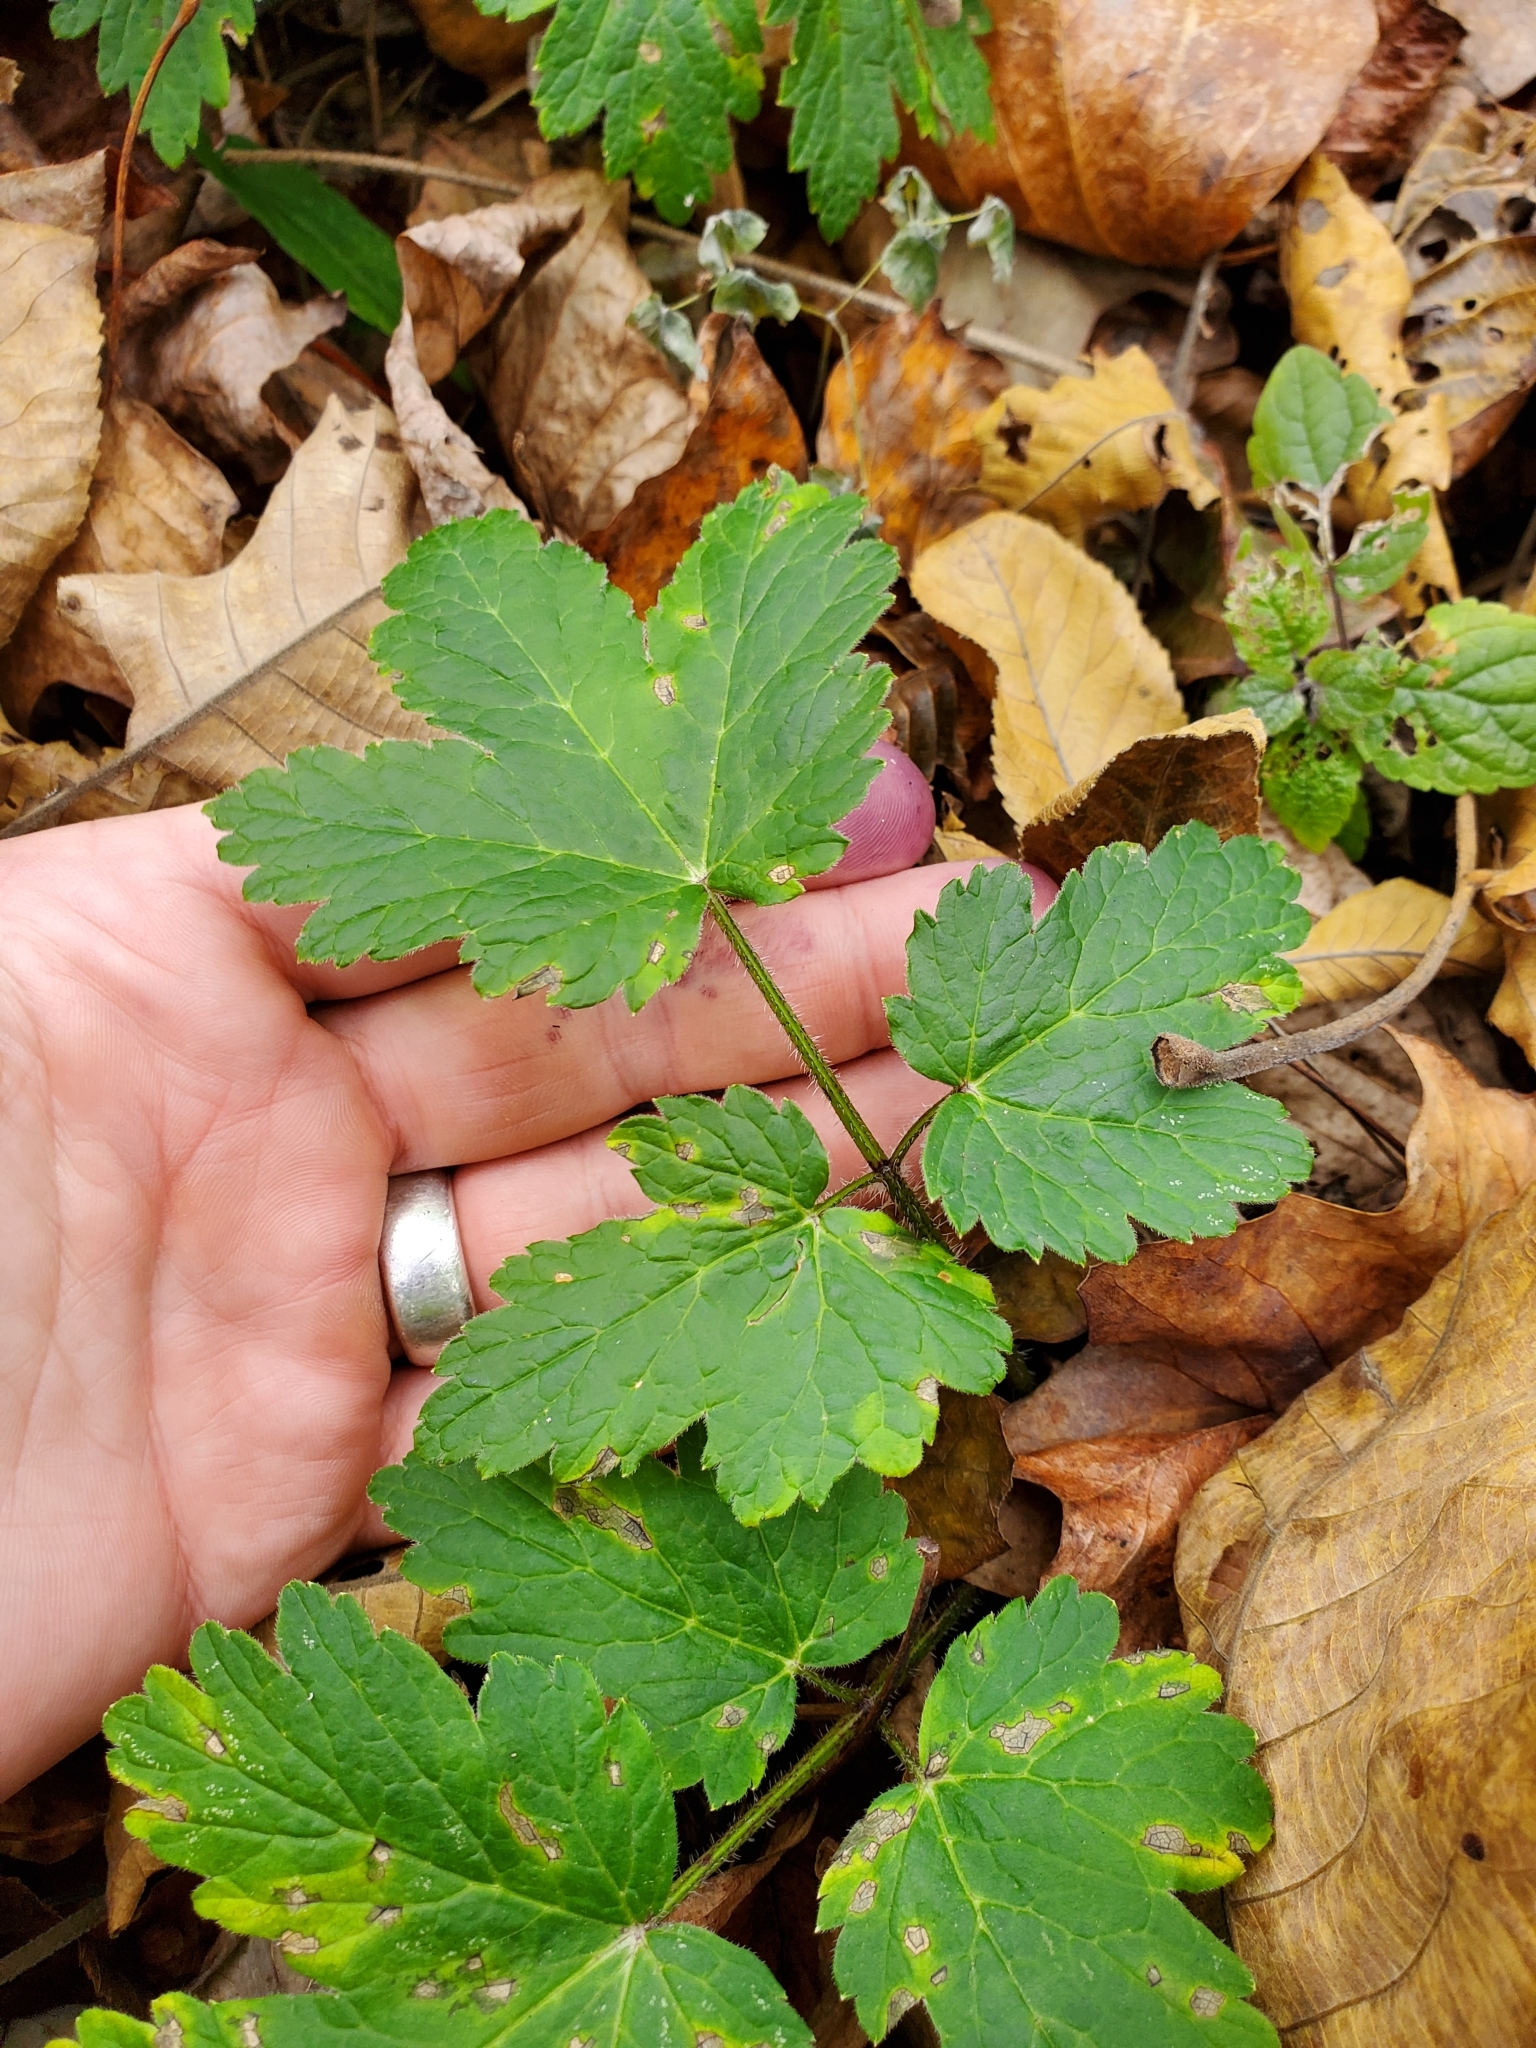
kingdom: Plantae
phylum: Tracheophyta
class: Magnoliopsida
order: Apiales
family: Apiaceae
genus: Heracleum
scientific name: Heracleum maximum
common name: American cow parsnip
